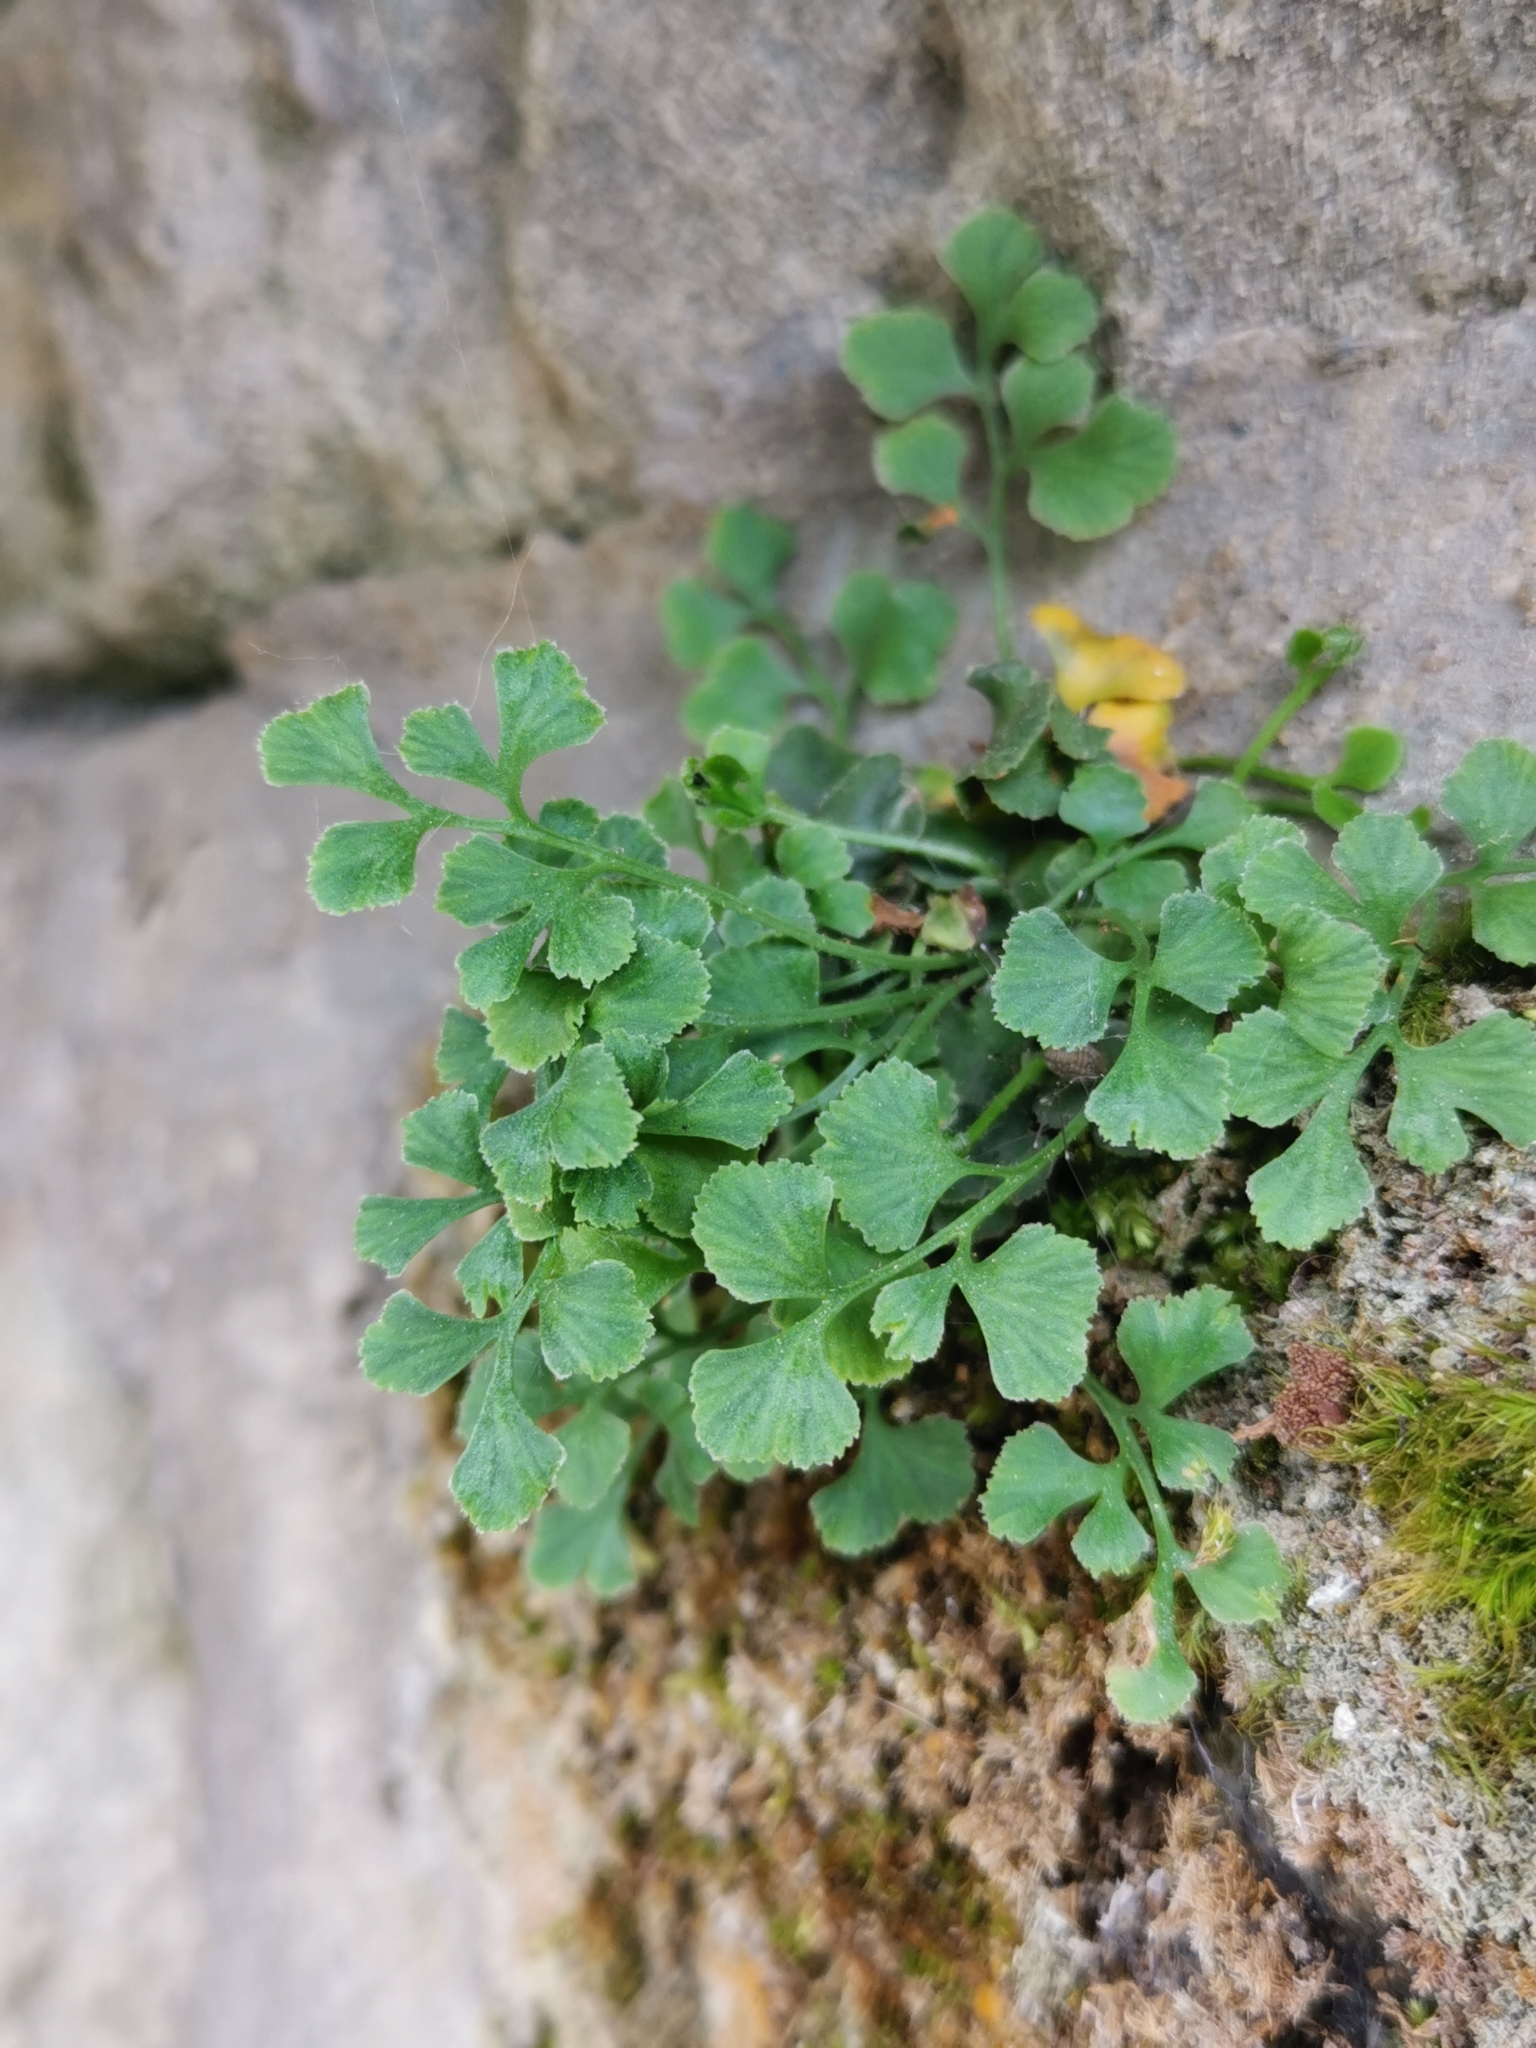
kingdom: Plantae
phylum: Tracheophyta
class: Polypodiopsida
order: Polypodiales
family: Aspleniaceae
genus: Asplenium
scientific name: Asplenium ruta-muraria
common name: Wall-rue
